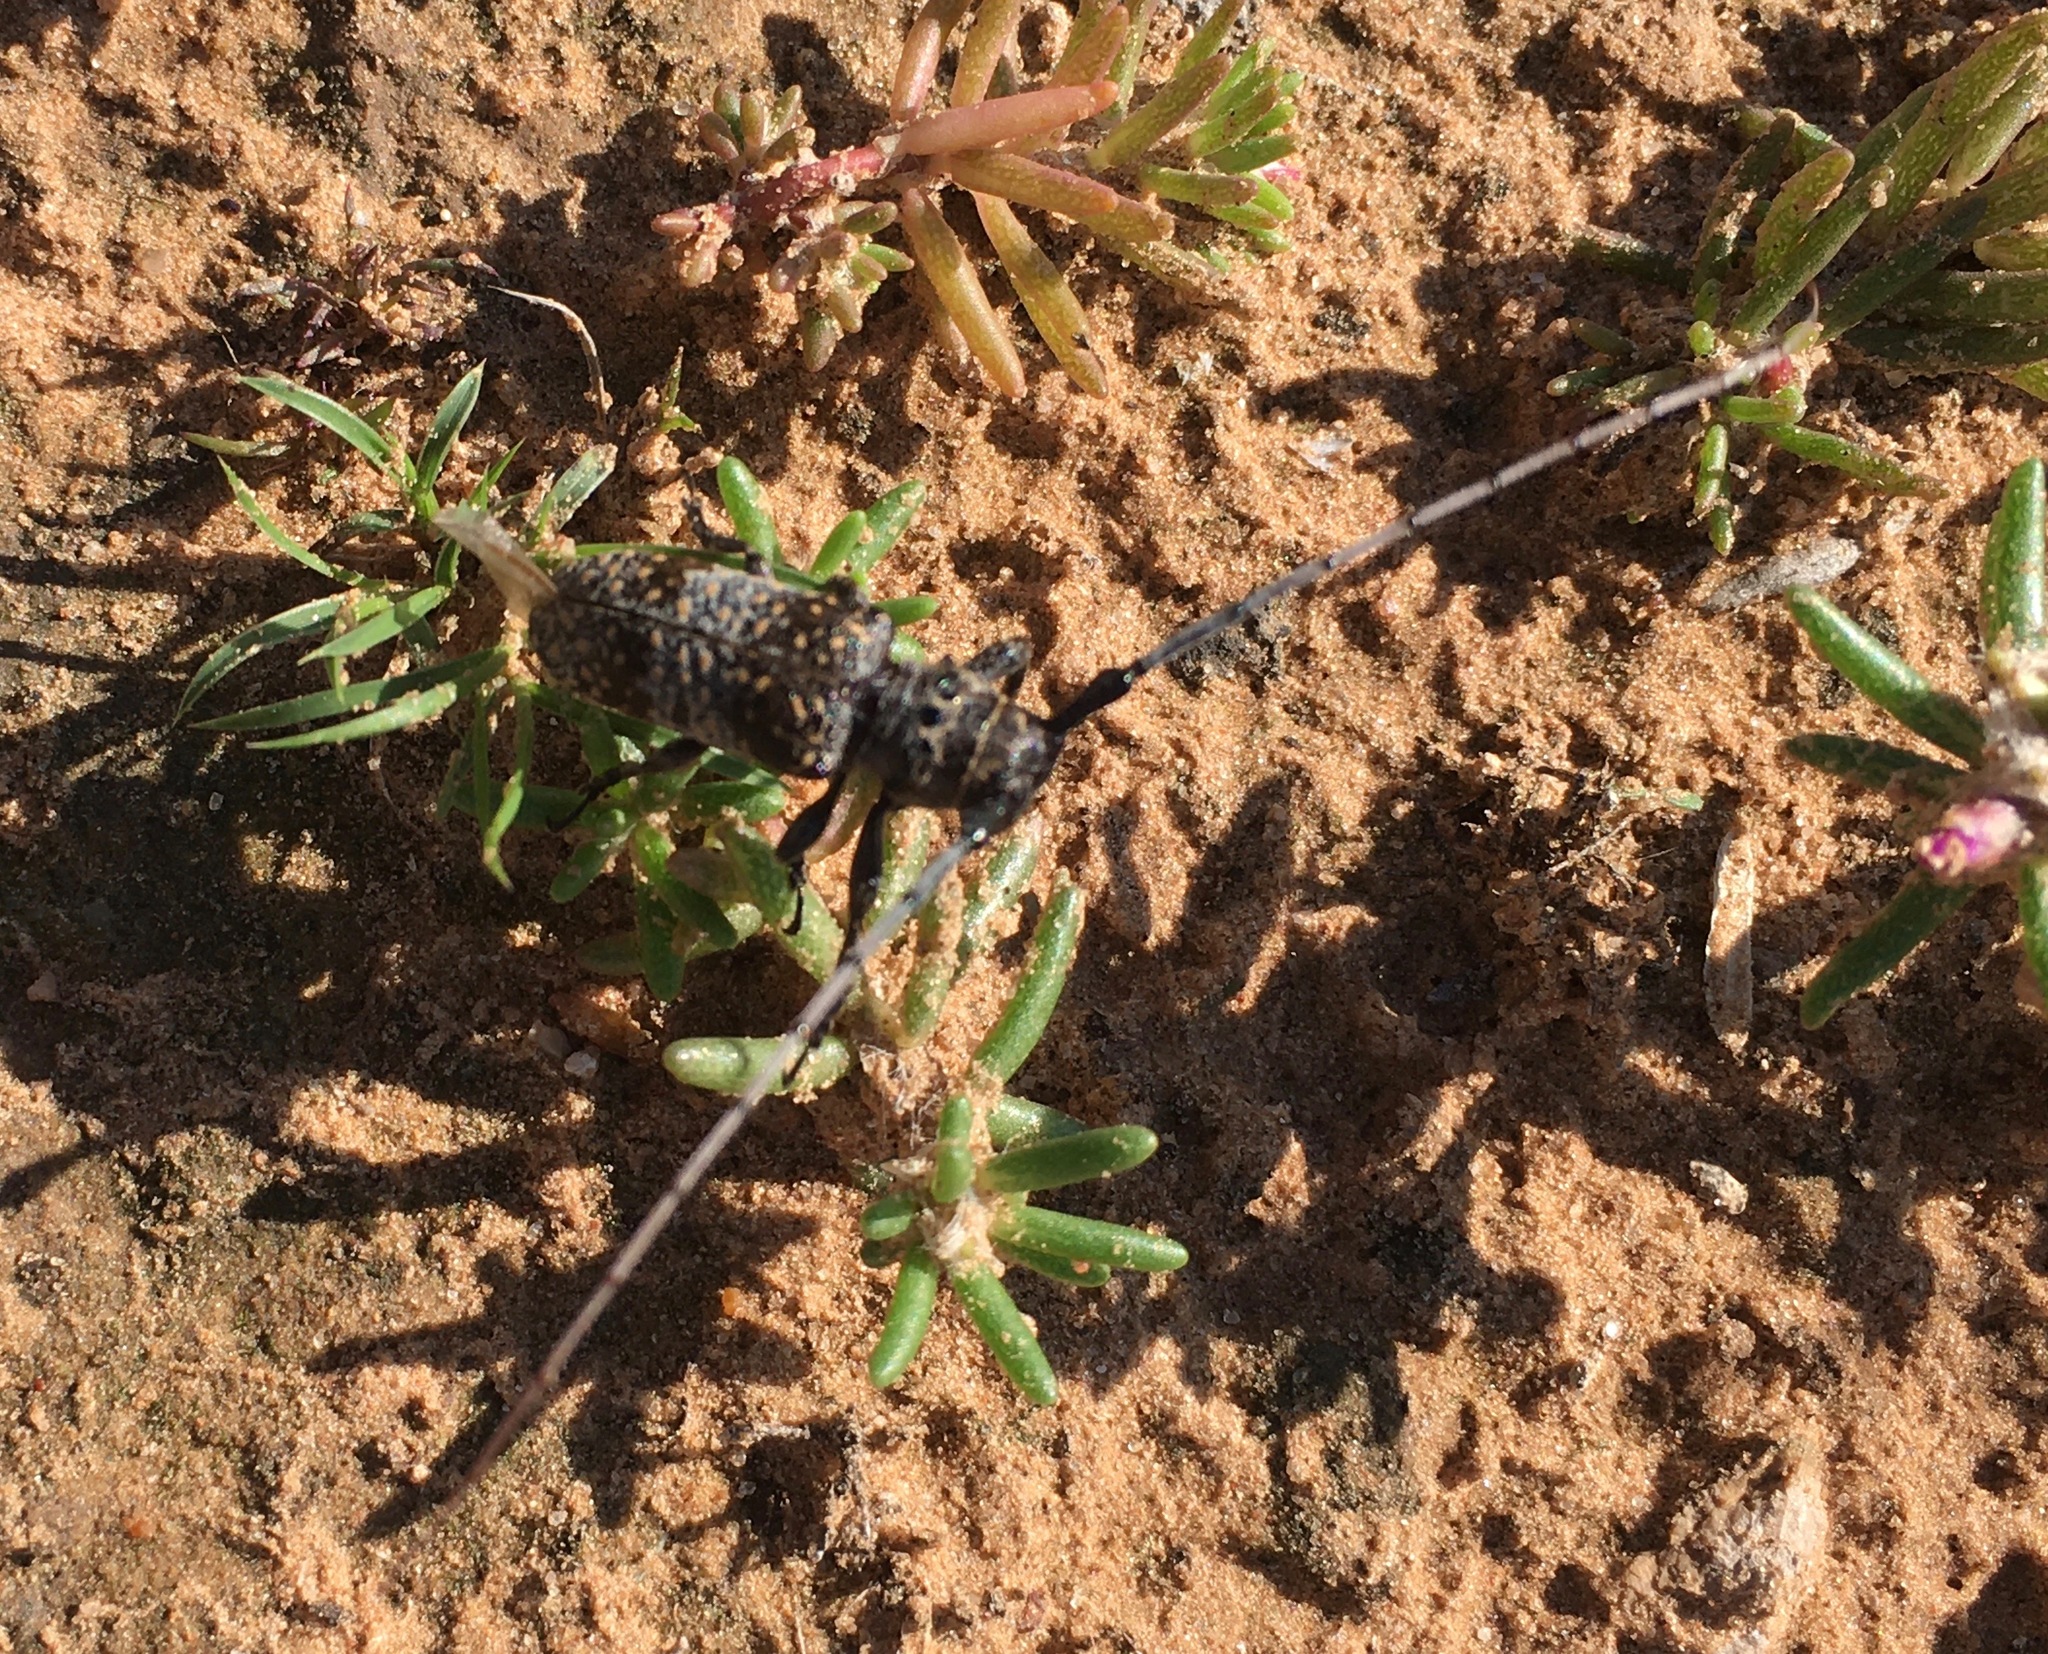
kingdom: Animalia
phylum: Arthropoda
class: Insecta
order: Coleoptera
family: Cerambycidae
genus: Oncideres
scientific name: Oncideres rhodosticta
